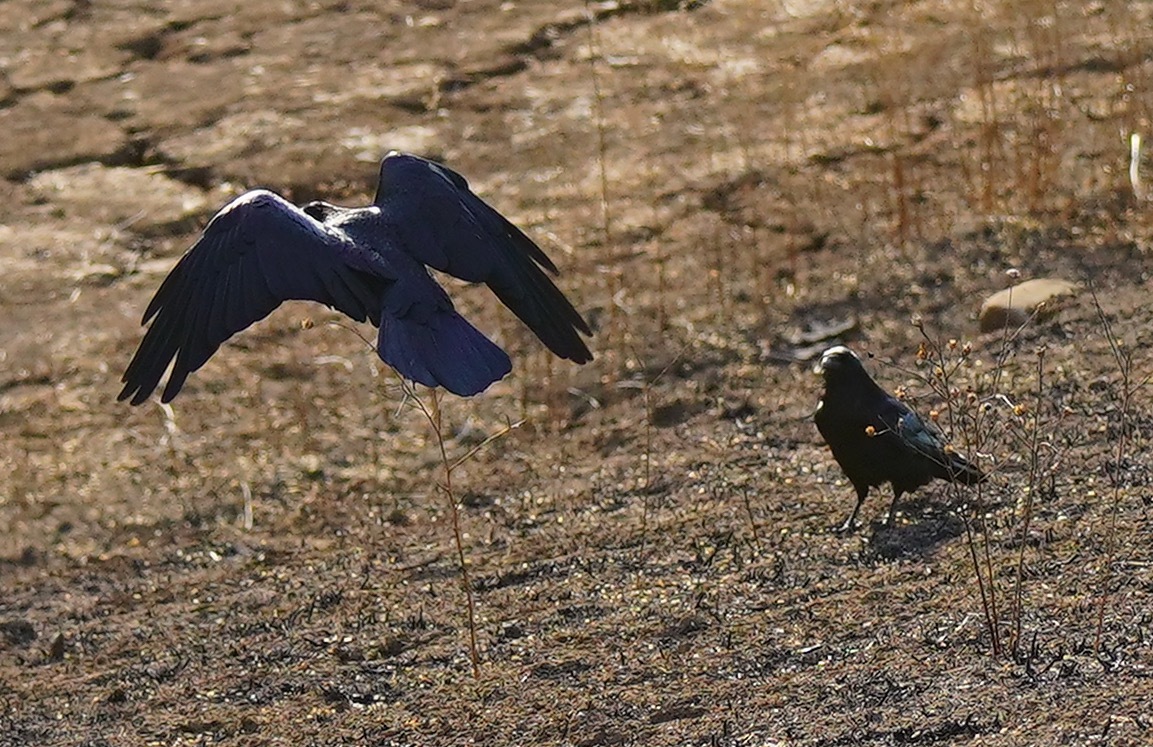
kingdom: Animalia
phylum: Chordata
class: Aves
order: Passeriformes
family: Corvidae
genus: Corvus
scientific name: Corvus corax
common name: Common raven
